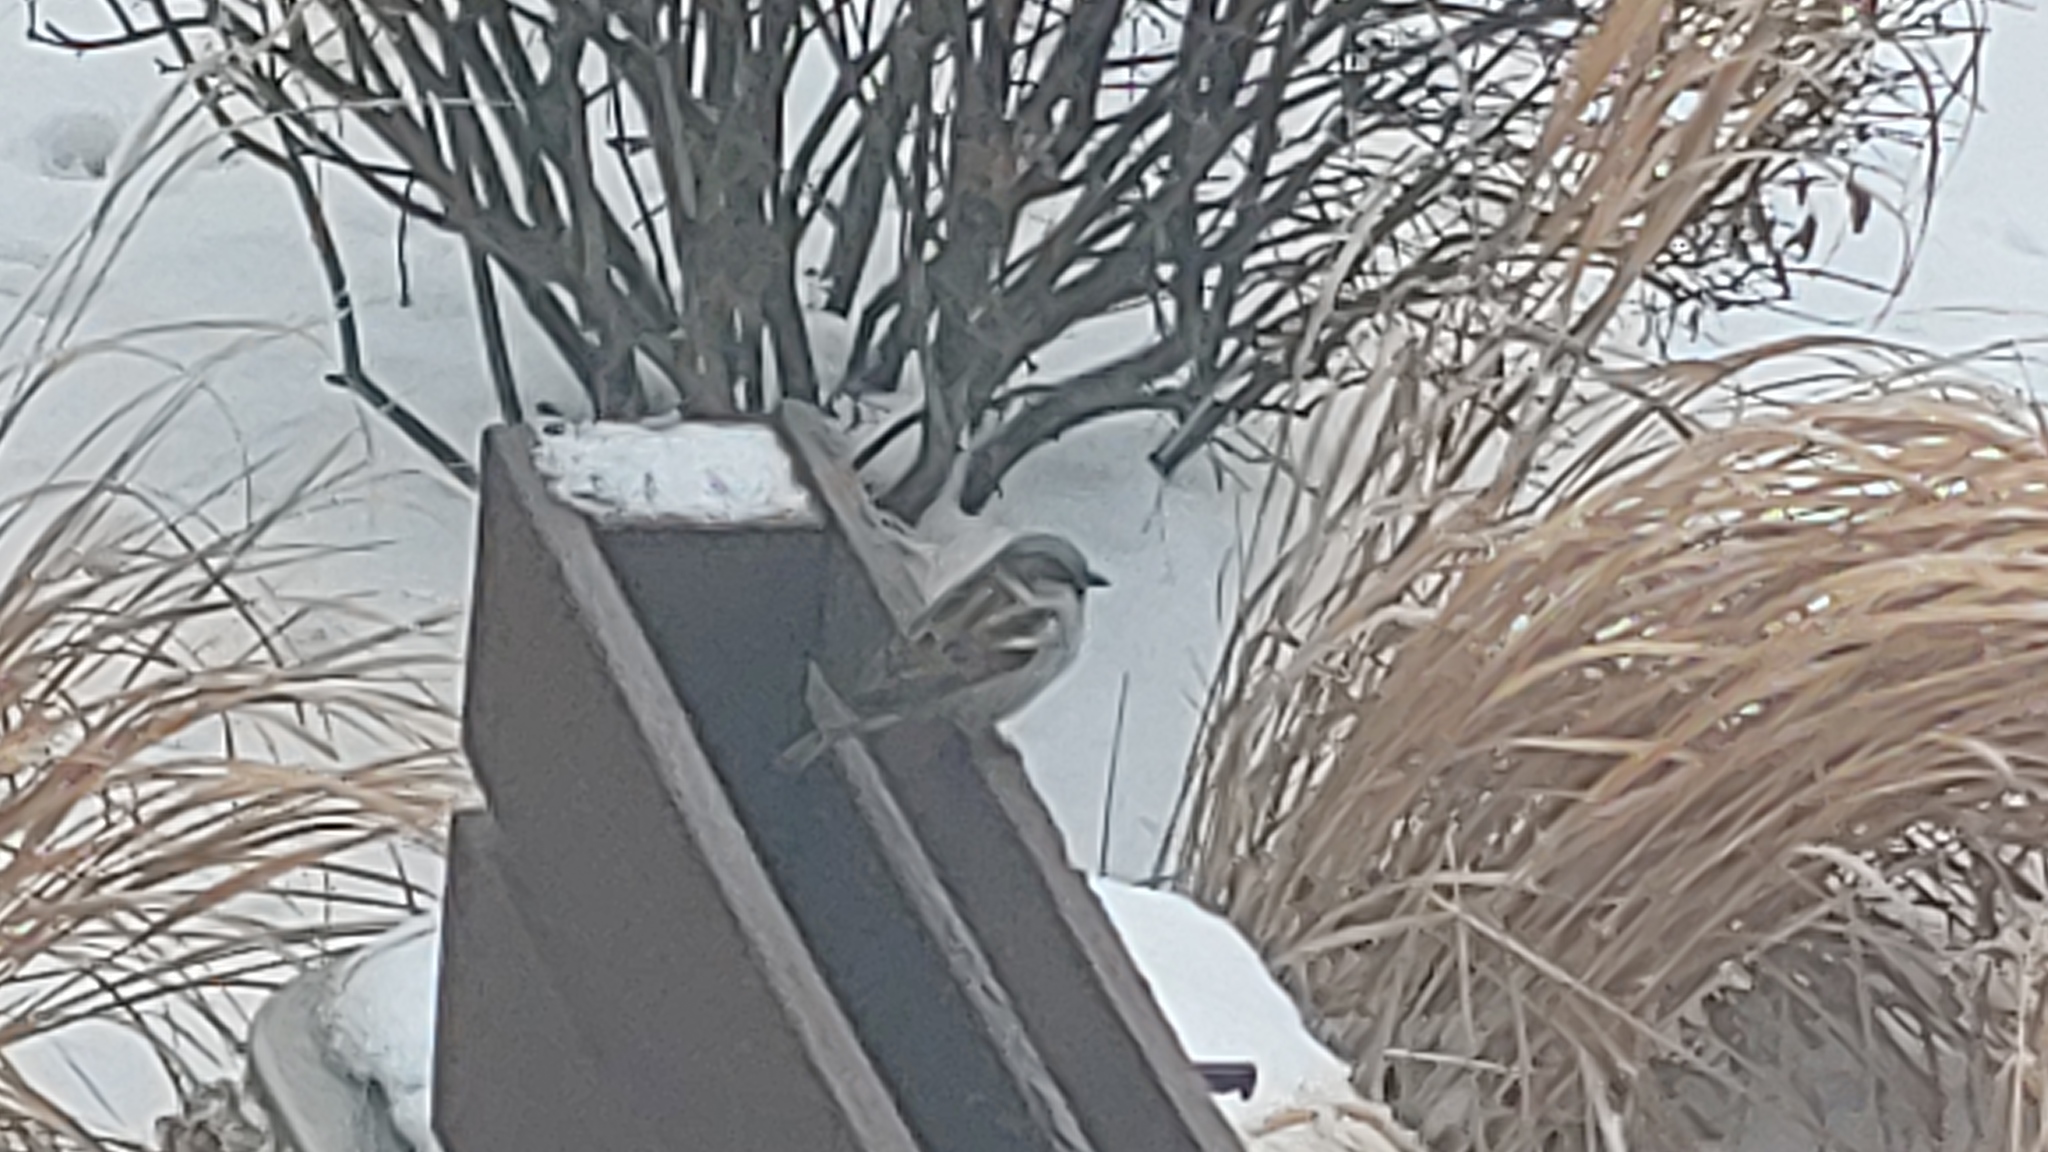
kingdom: Animalia
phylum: Chordata
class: Aves
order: Passeriformes
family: Passeridae
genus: Passer
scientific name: Passer domesticus
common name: House sparrow
